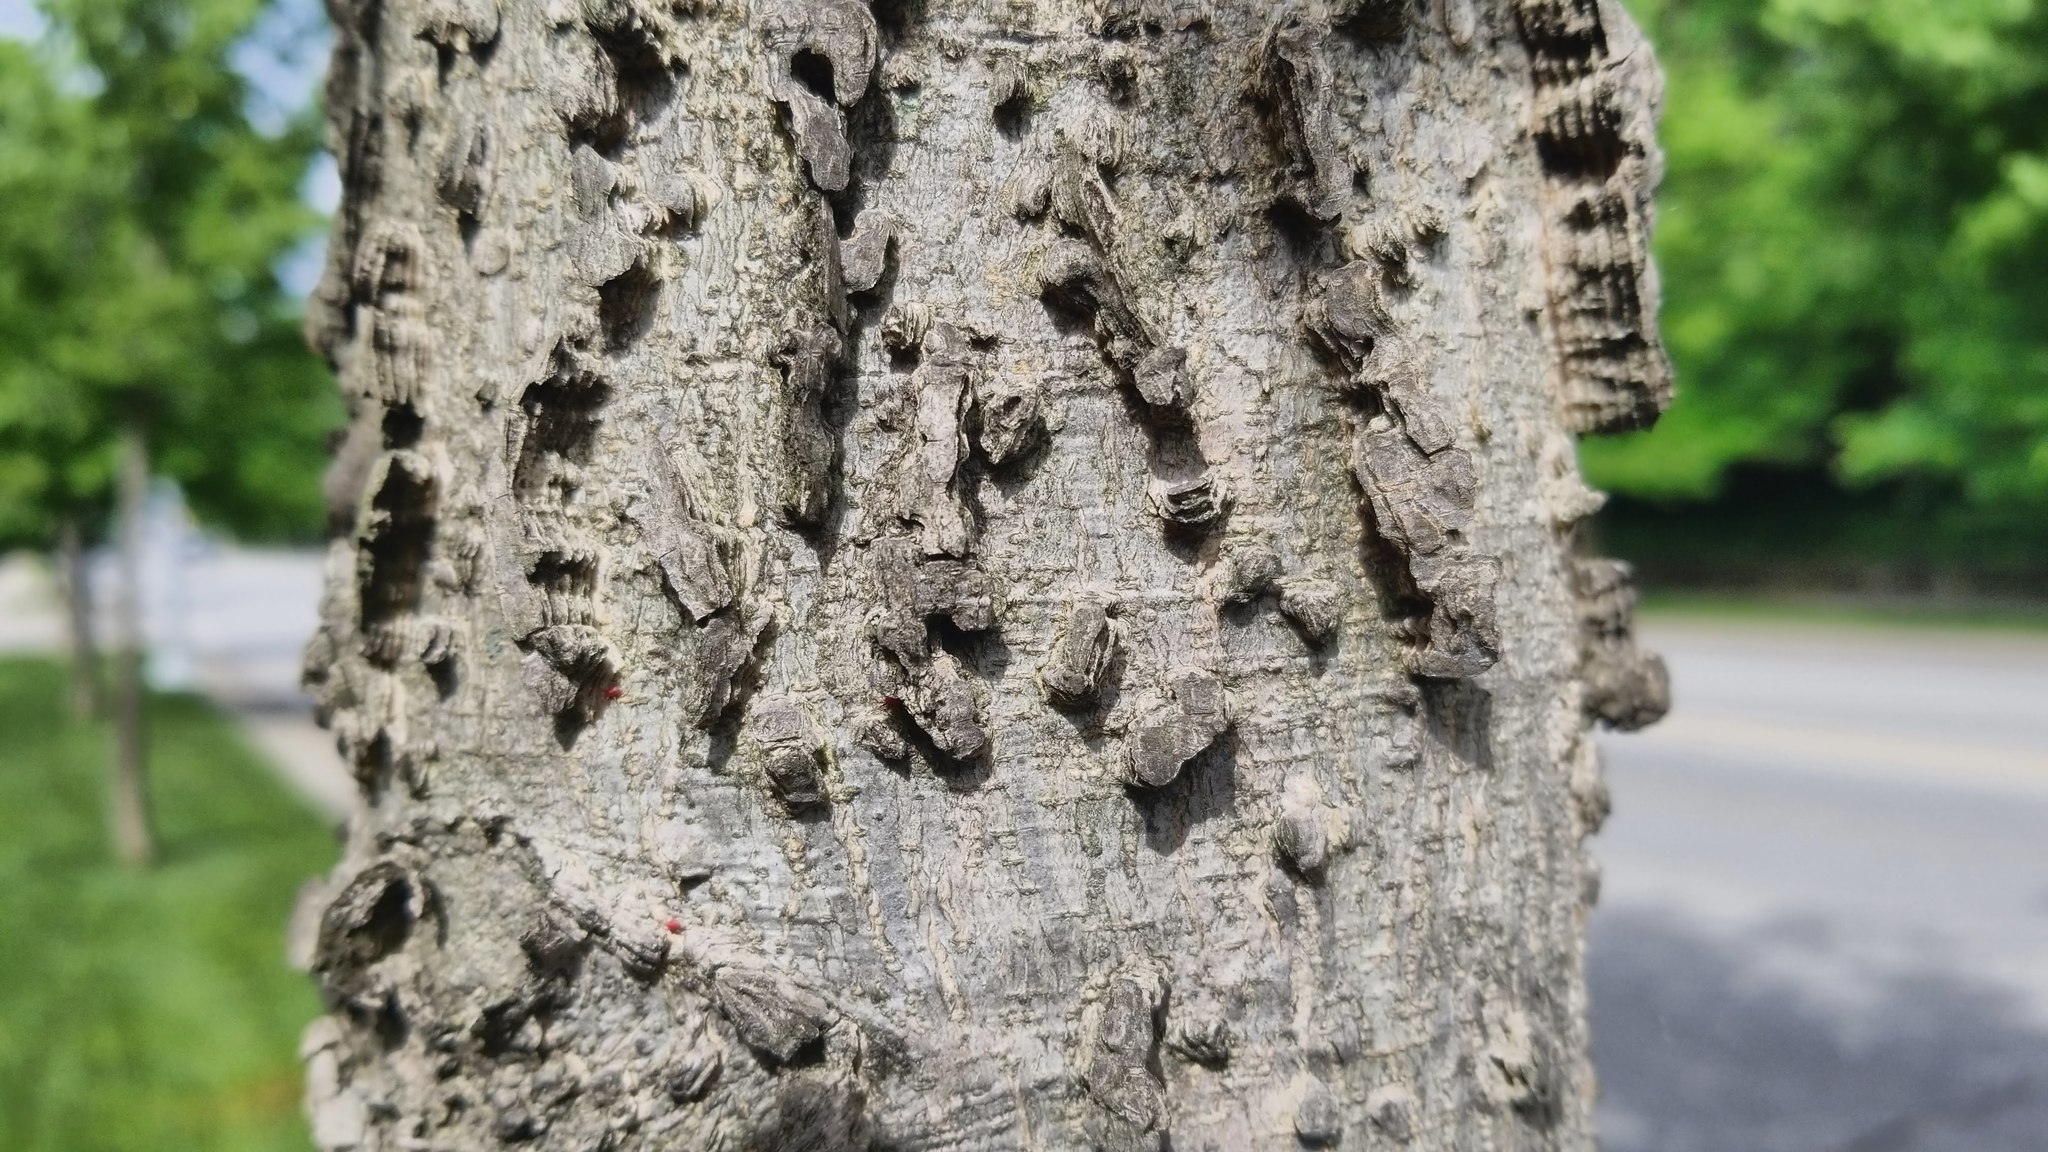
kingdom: Plantae
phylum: Tracheophyta
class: Magnoliopsida
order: Rosales
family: Cannabaceae
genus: Celtis
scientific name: Celtis occidentalis
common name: Common hackberry
